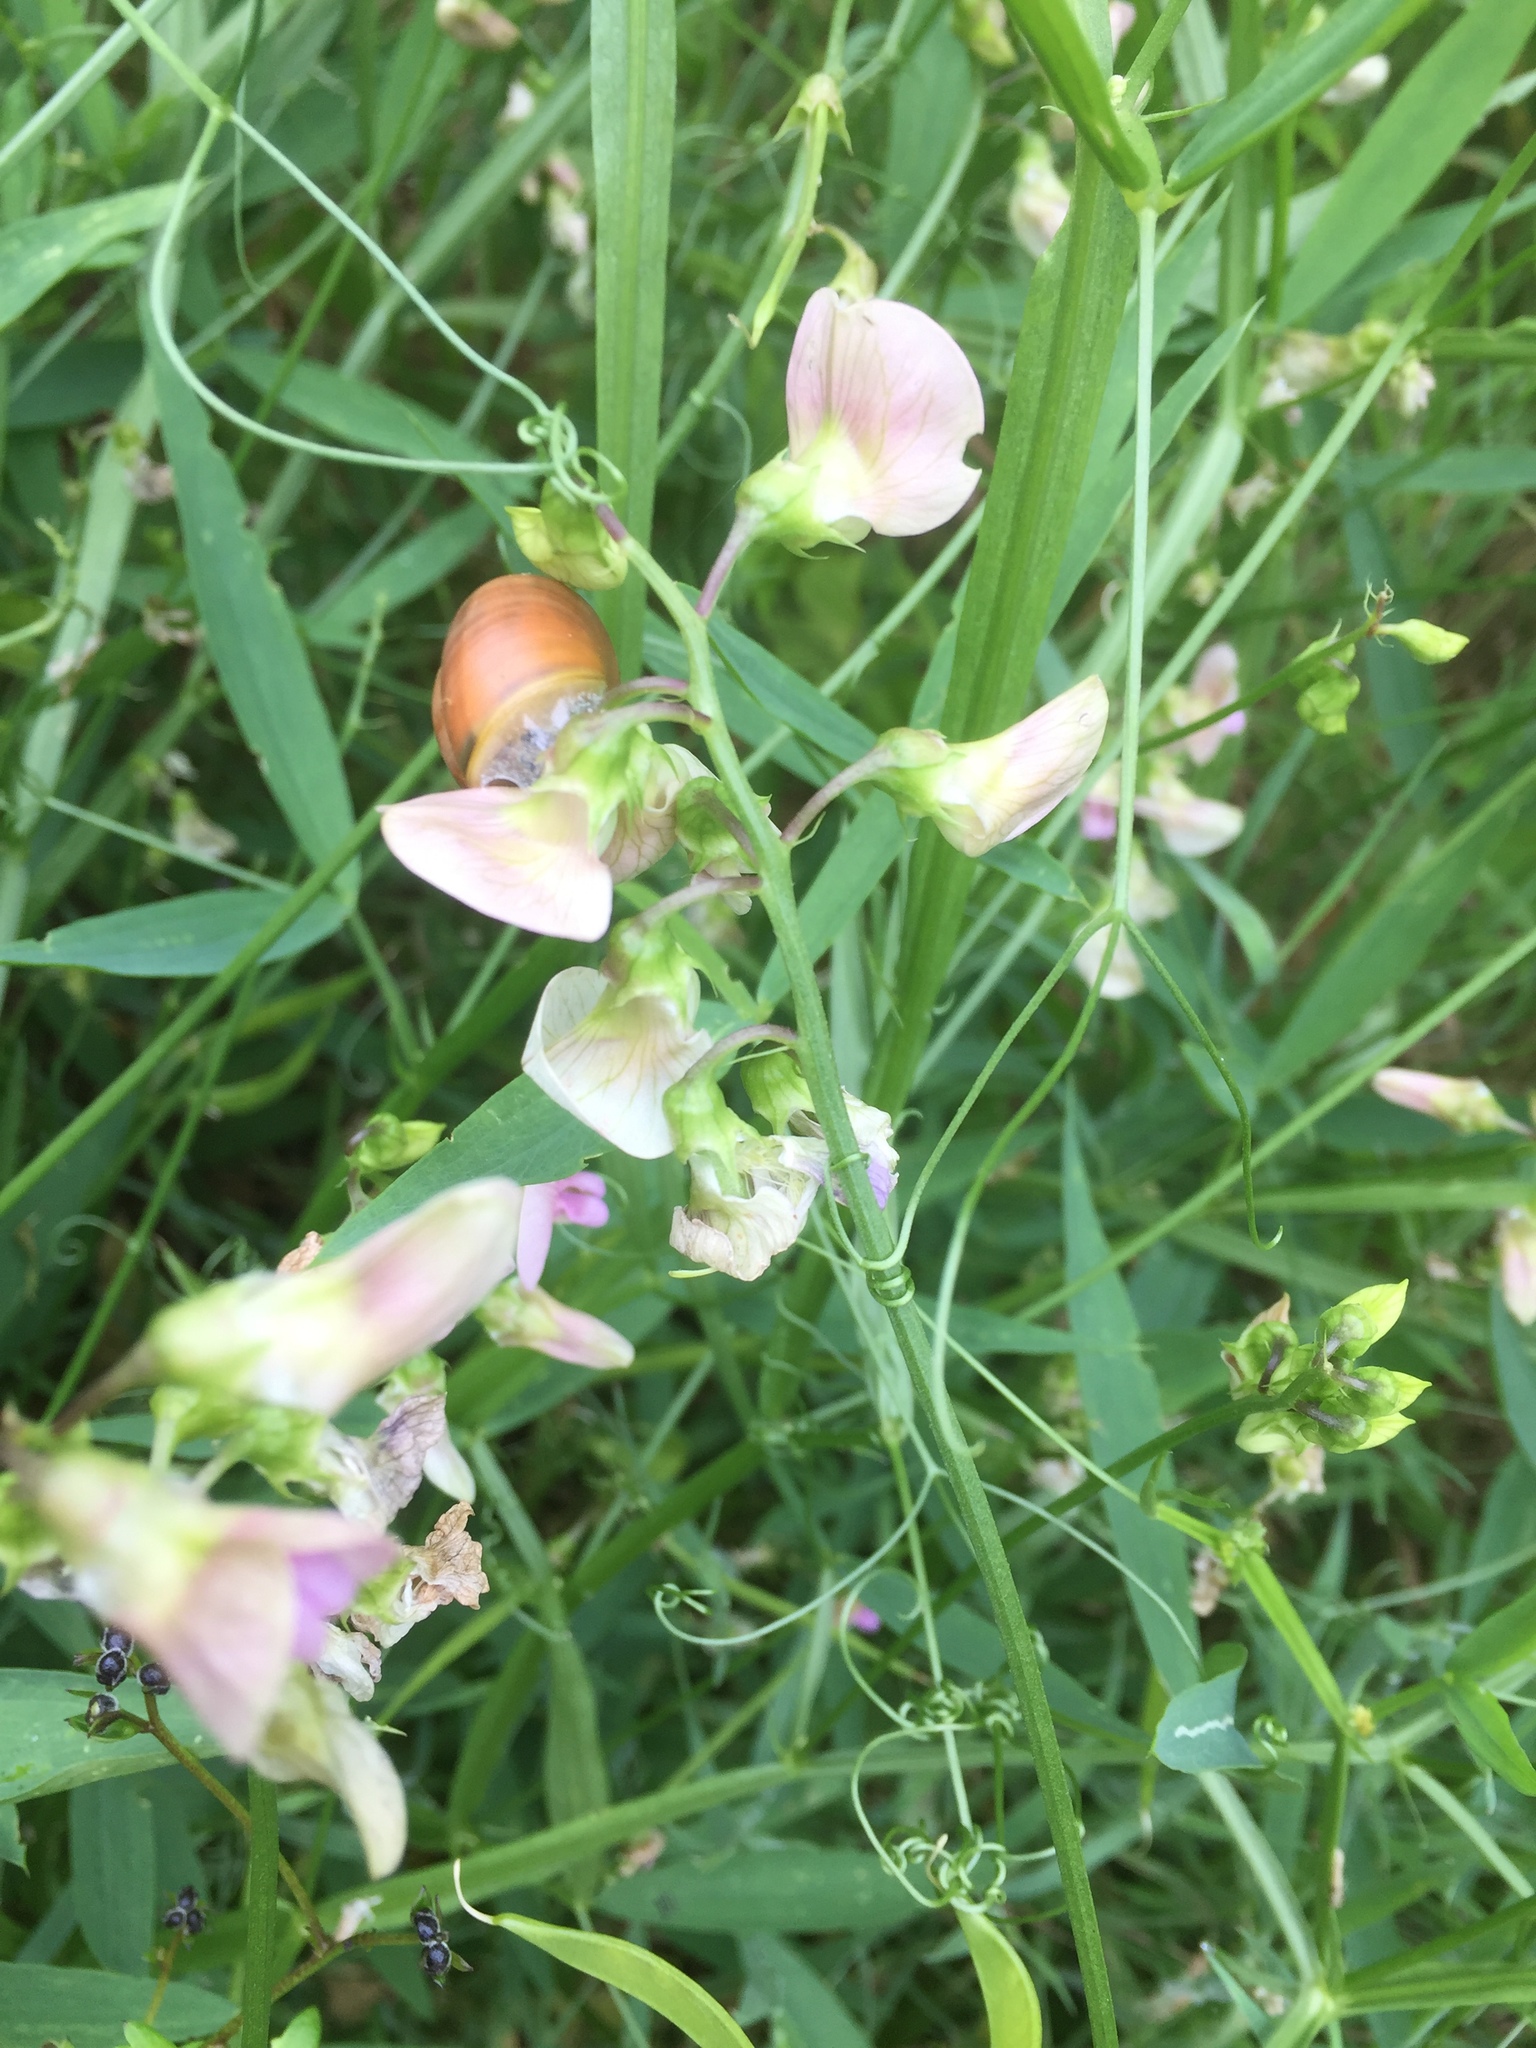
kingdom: Plantae
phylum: Tracheophyta
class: Magnoliopsida
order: Fabales
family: Fabaceae
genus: Lathyrus
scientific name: Lathyrus sylvestris
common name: Flat pea
